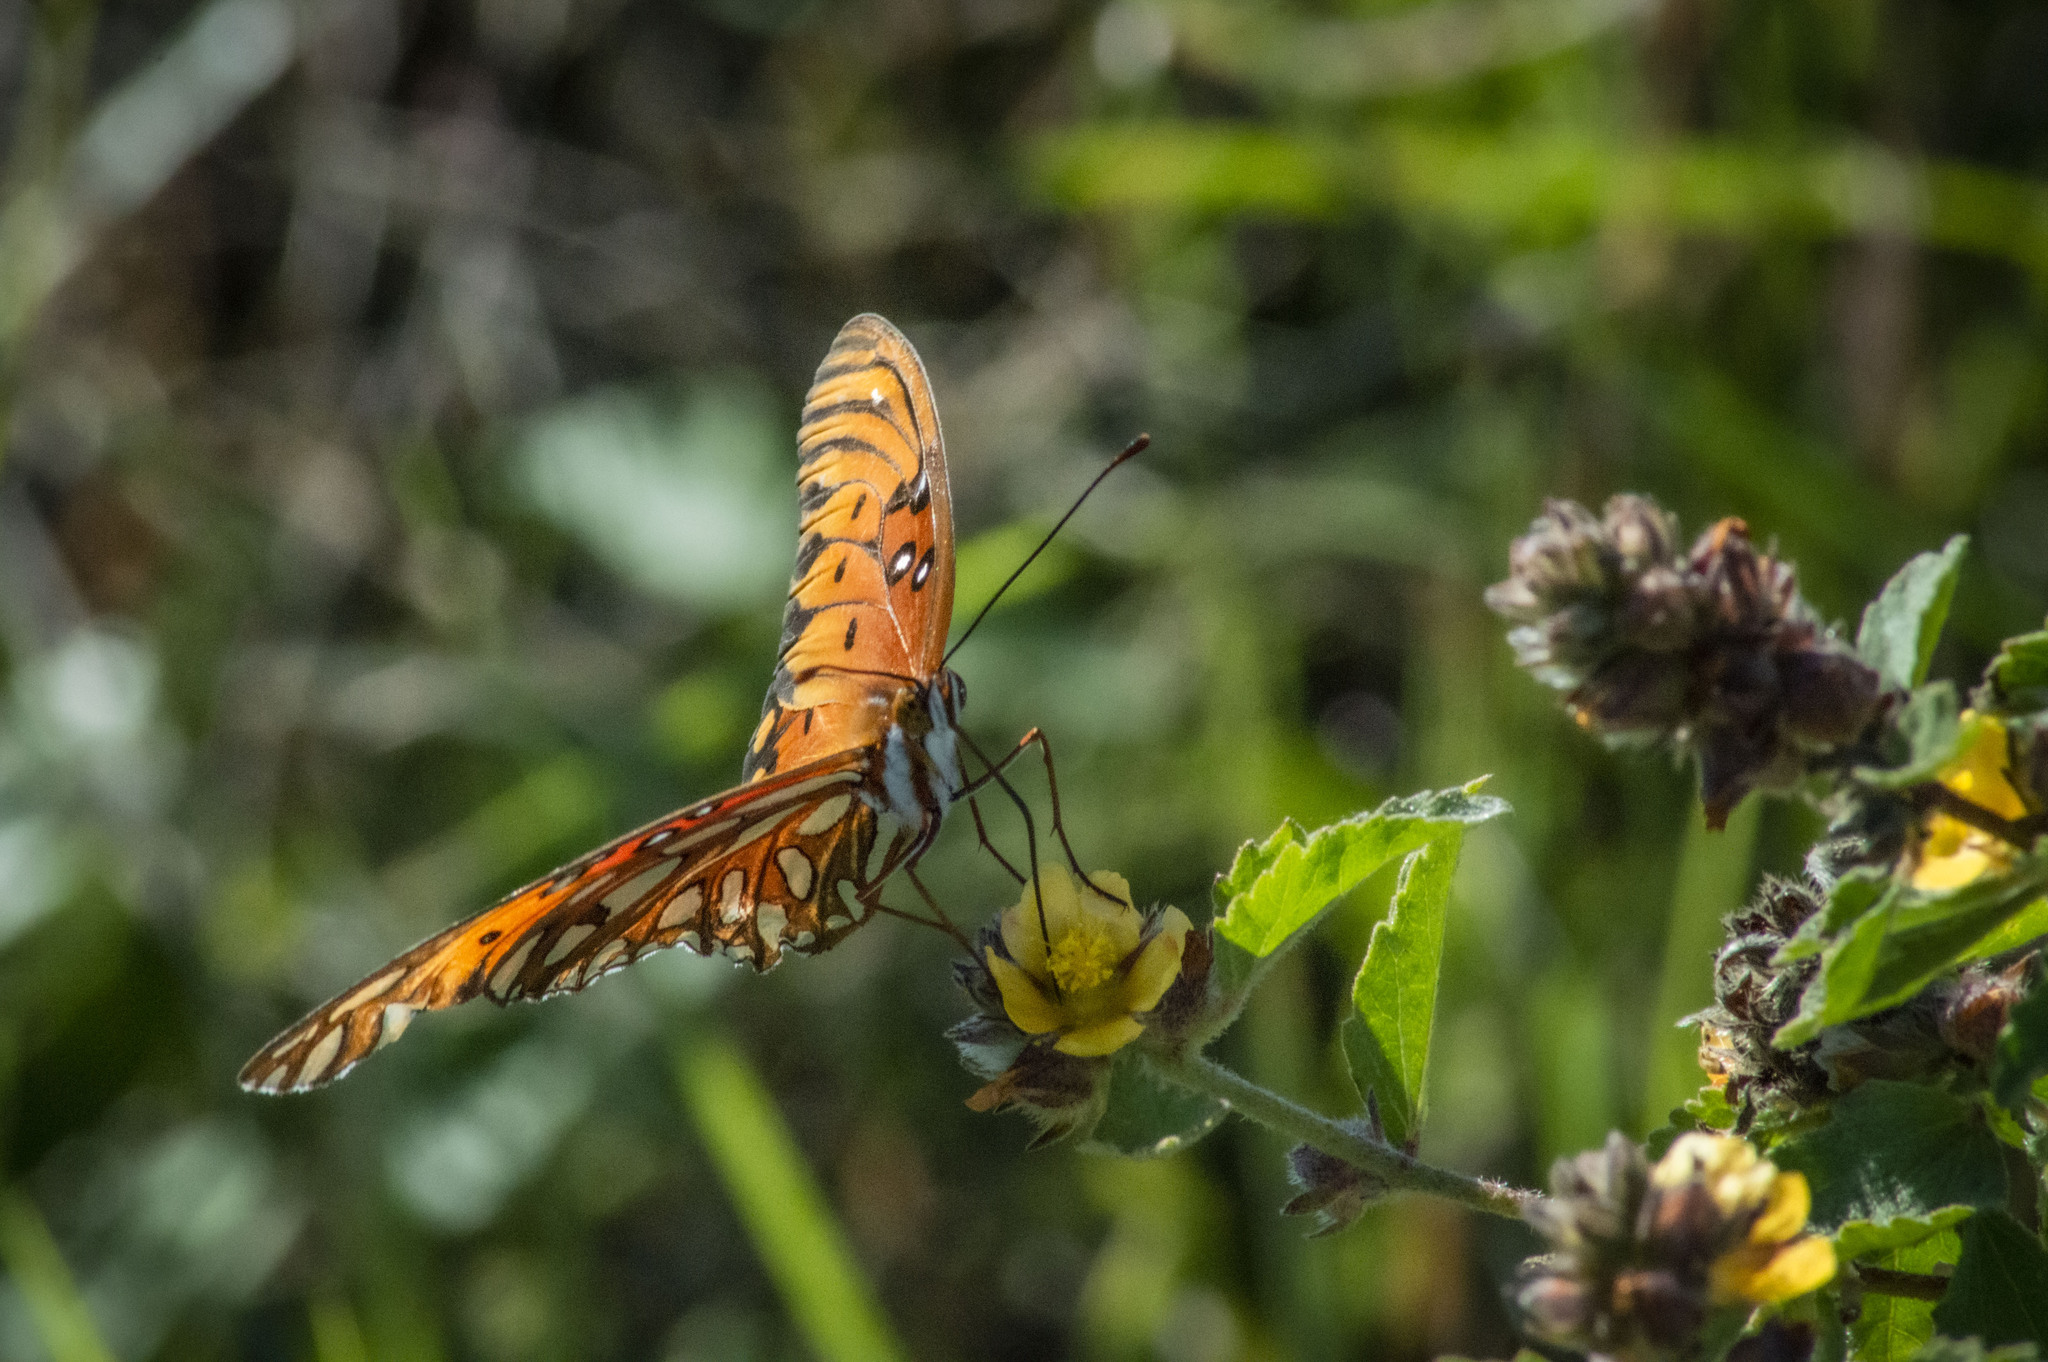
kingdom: Animalia
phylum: Arthropoda
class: Insecta
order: Lepidoptera
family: Nymphalidae
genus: Dione
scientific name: Dione vanillae
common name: Gulf fritillary
